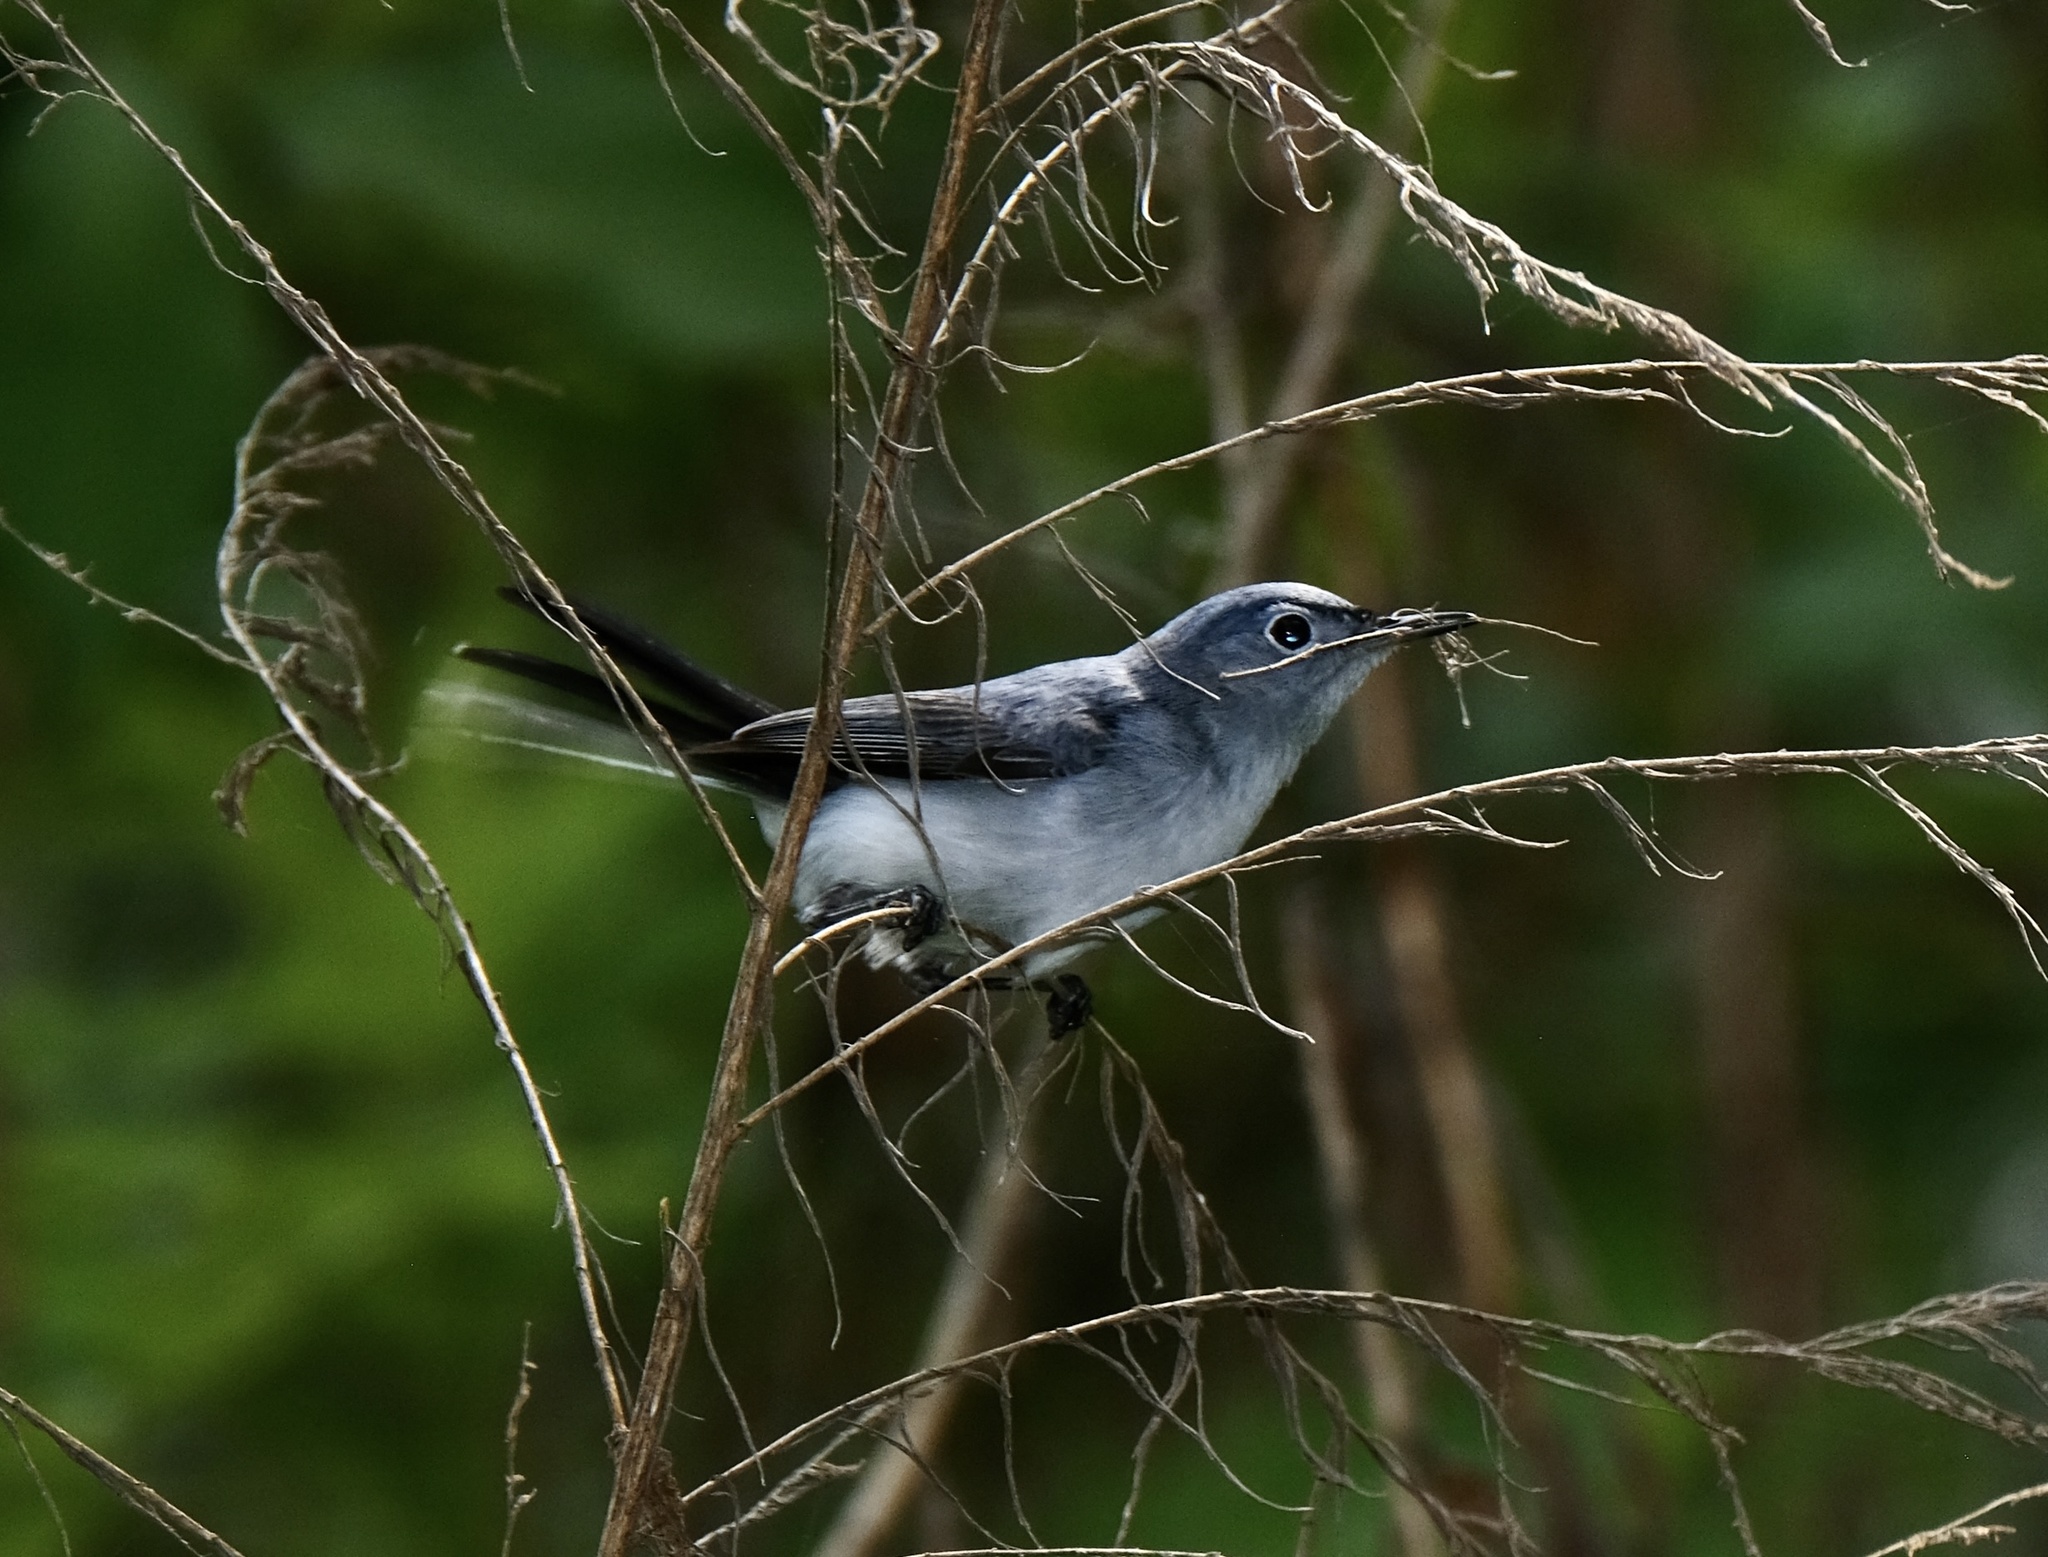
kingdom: Animalia
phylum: Chordata
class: Aves
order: Passeriformes
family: Polioptilidae
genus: Polioptila
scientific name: Polioptila caerulea
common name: Blue-gray gnatcatcher
